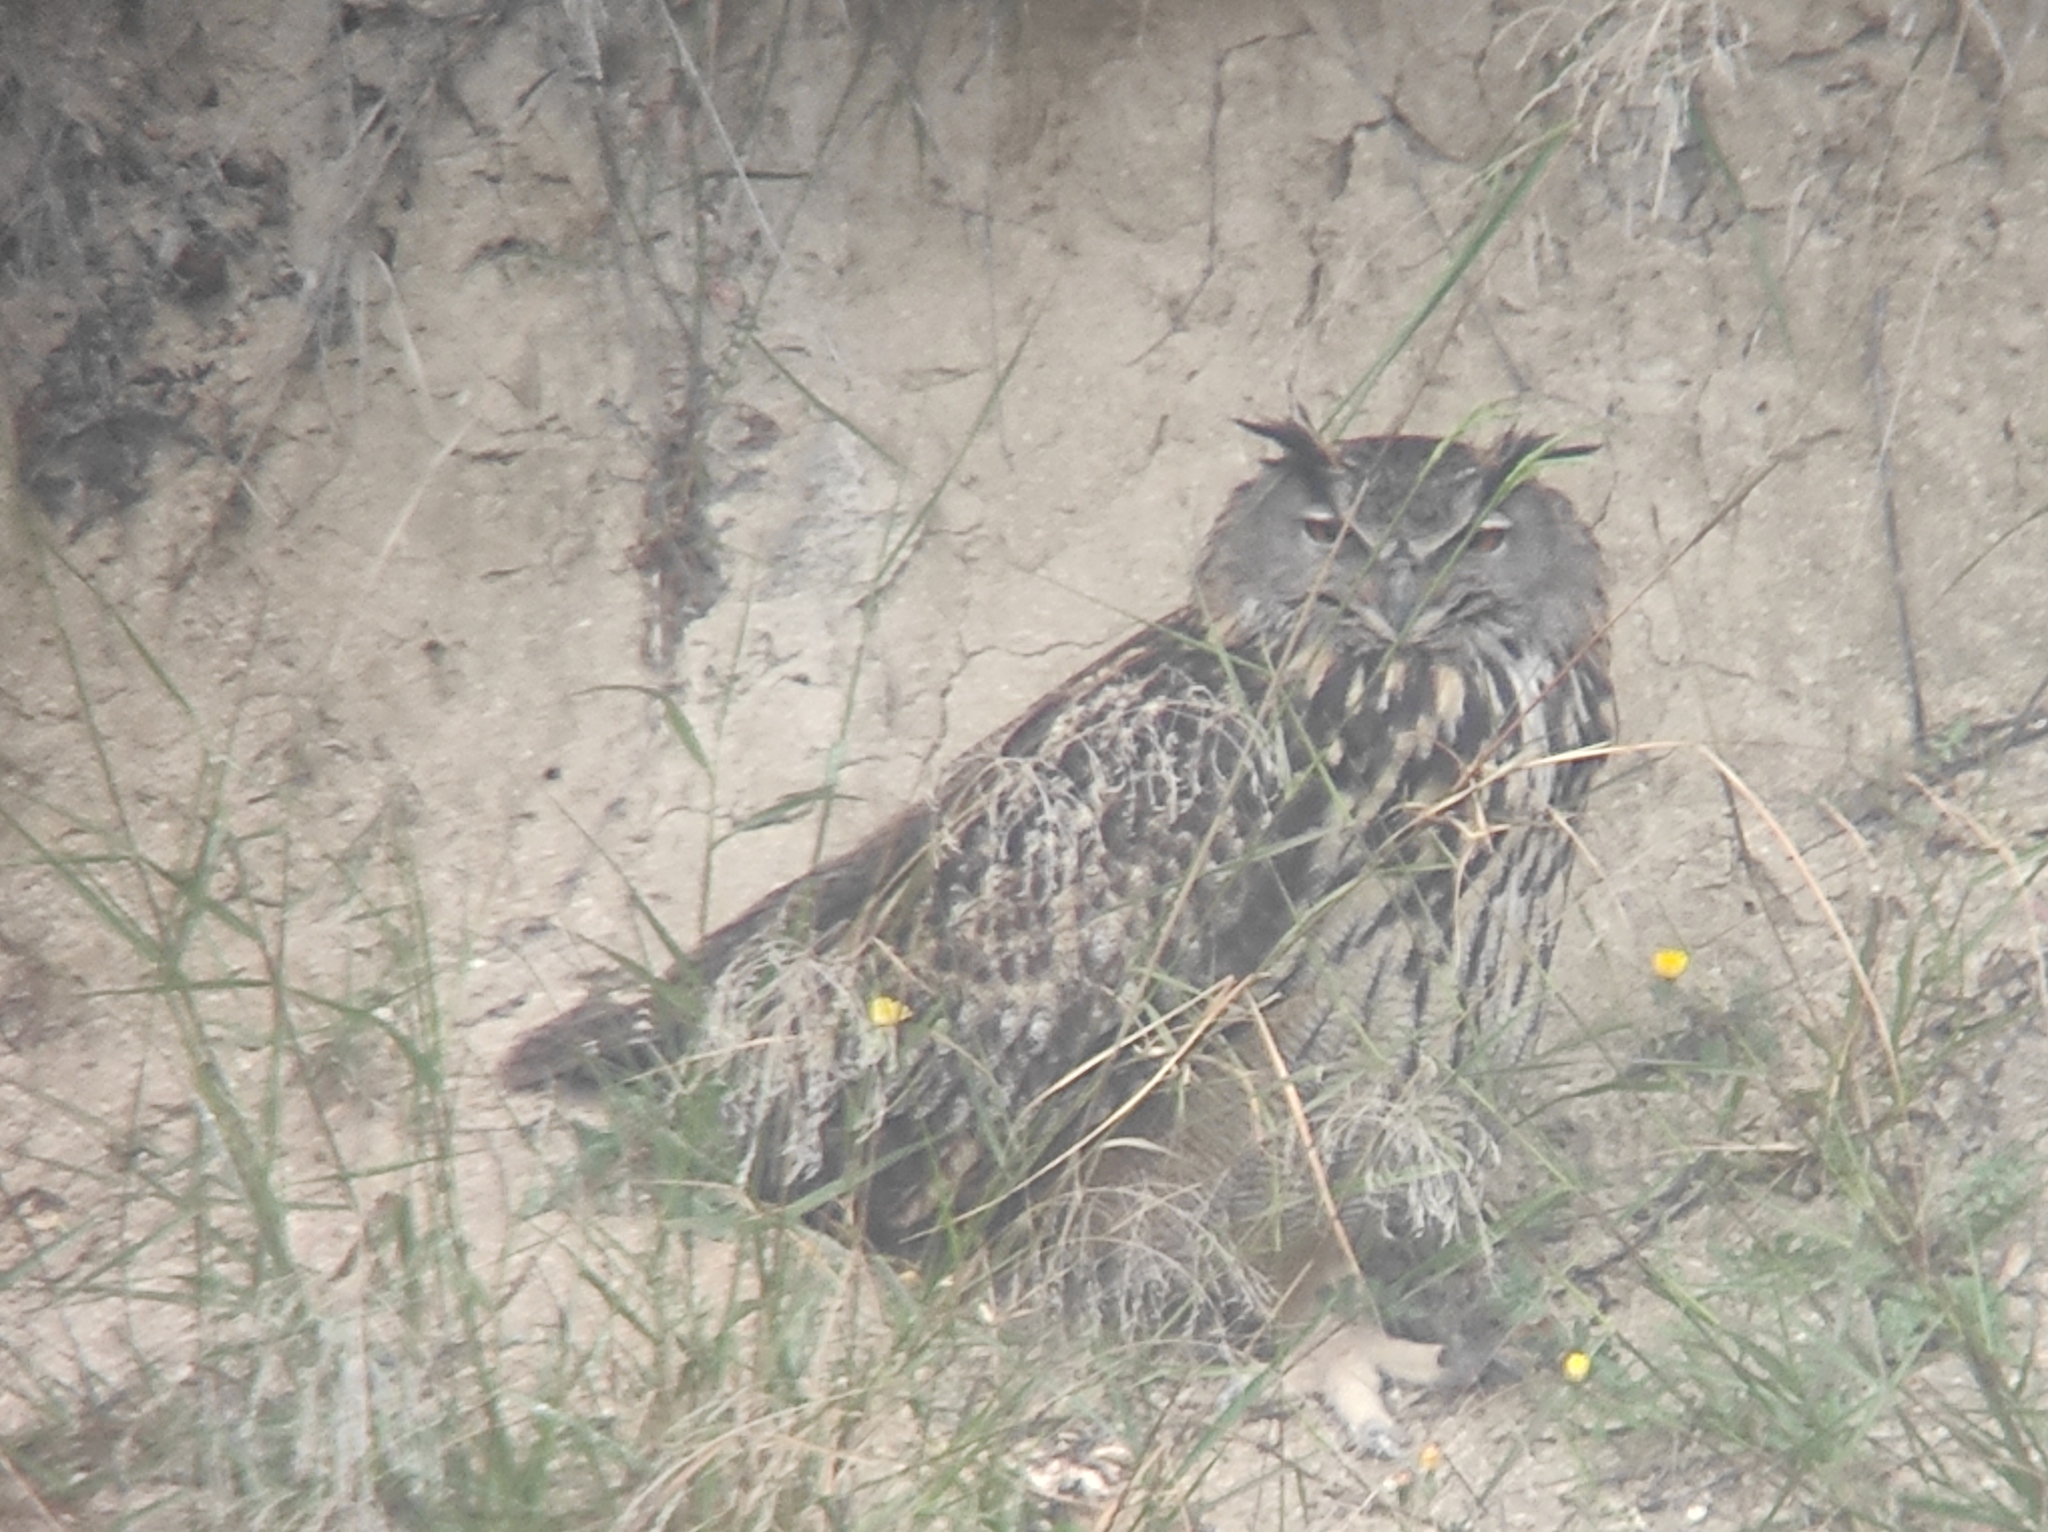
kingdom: Animalia
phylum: Chordata
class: Aves
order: Strigiformes
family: Strigidae
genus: Bubo
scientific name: Bubo bubo
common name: Eurasian eagle-owl
